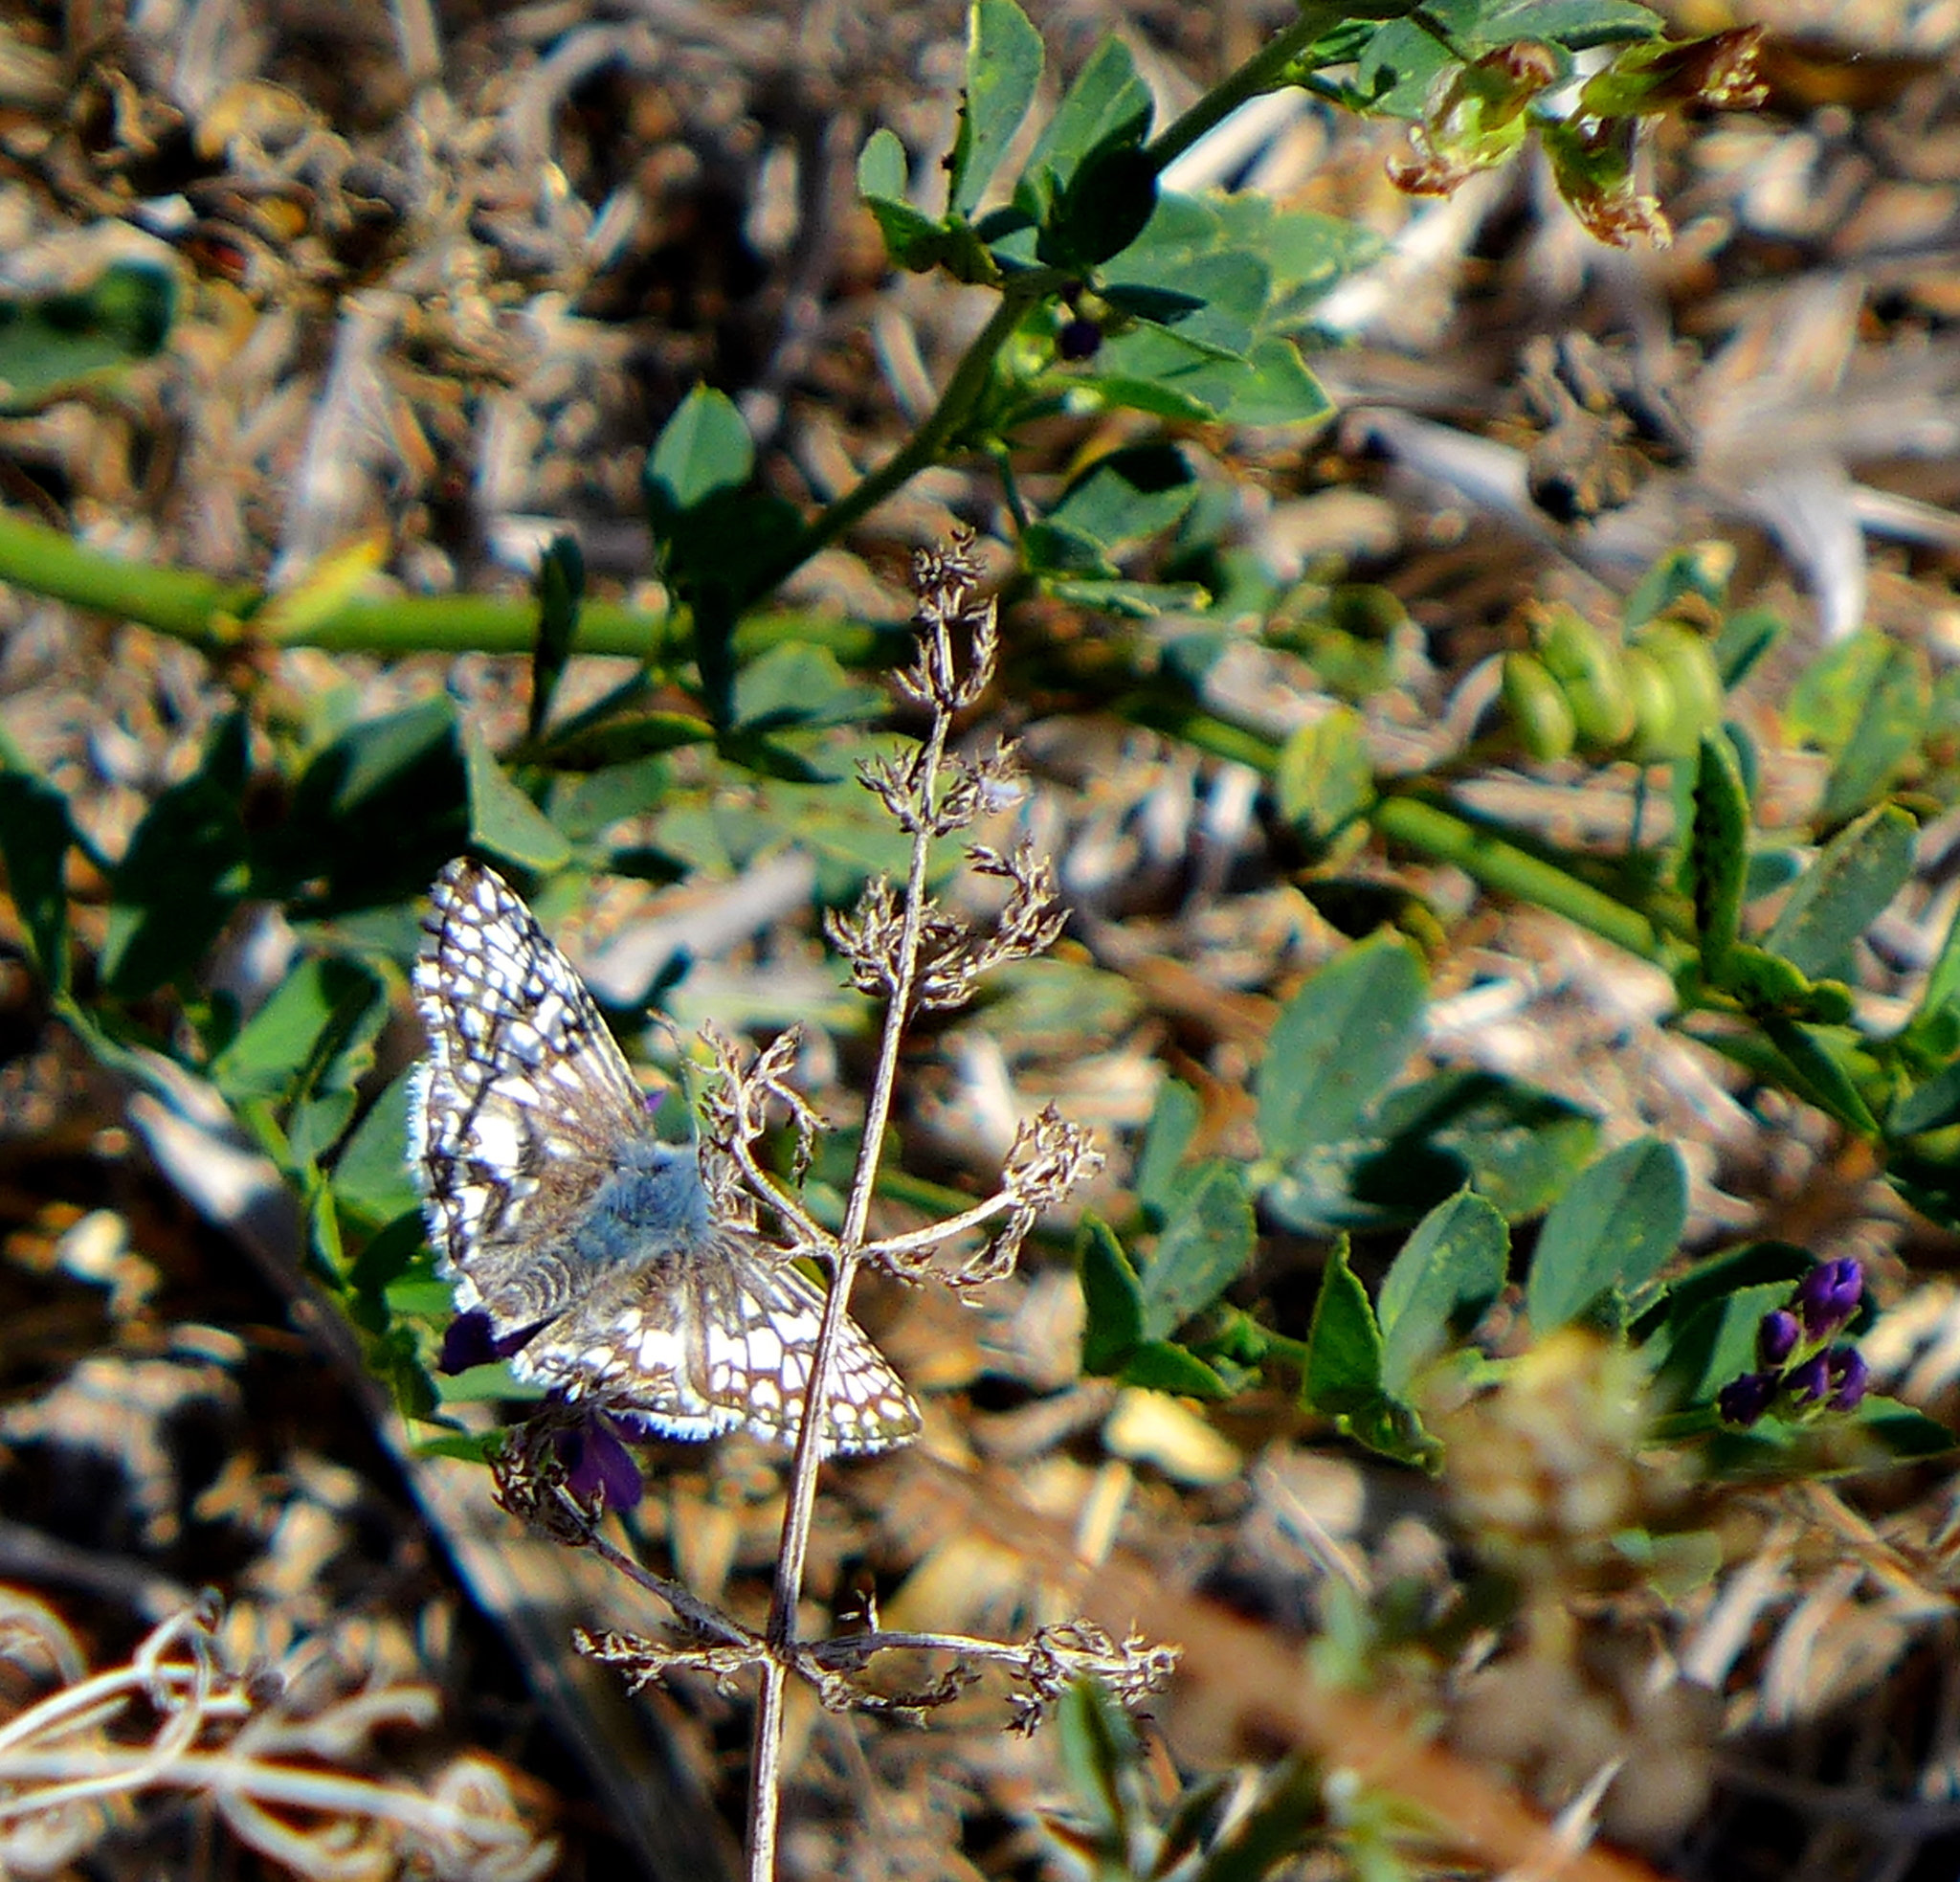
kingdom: Animalia
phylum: Arthropoda
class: Insecta
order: Lepidoptera
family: Hesperiidae
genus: Burnsius
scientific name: Burnsius communis
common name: Common checkered-skipper
